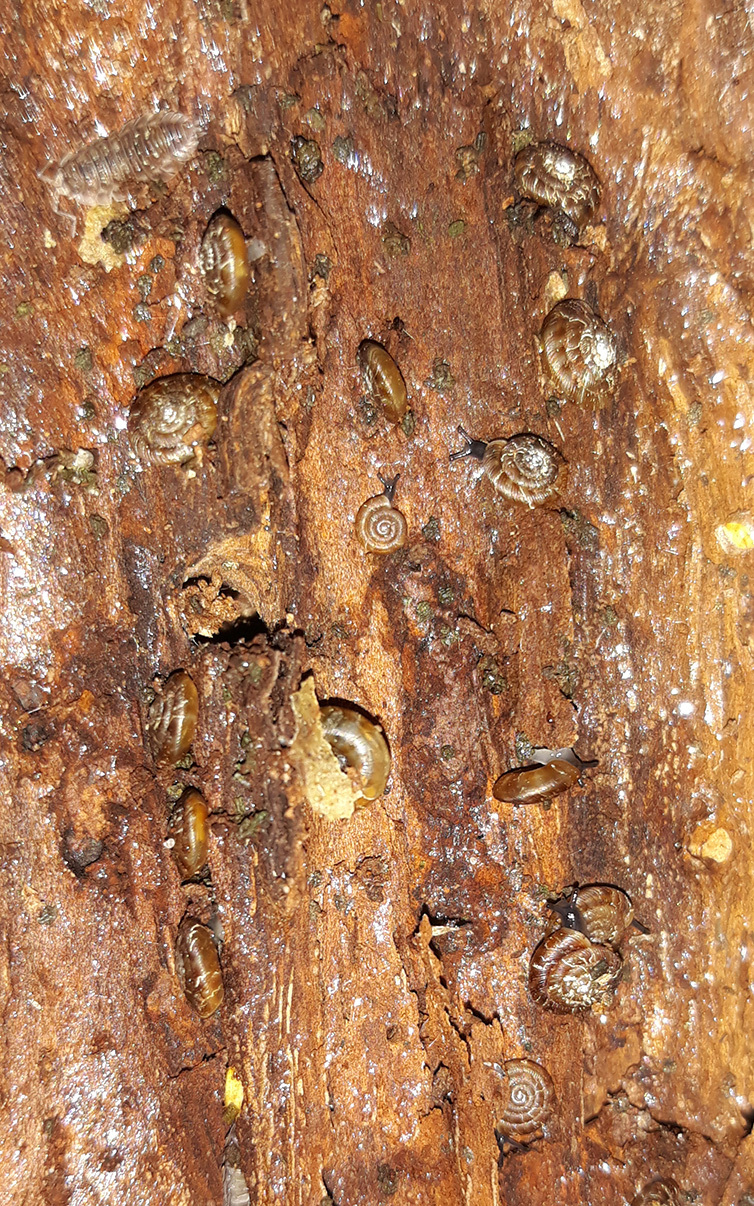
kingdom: Animalia
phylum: Mollusca
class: Gastropoda
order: Stylommatophora
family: Discidae
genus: Discus
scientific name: Discus rotundatus
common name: Rounded snail
